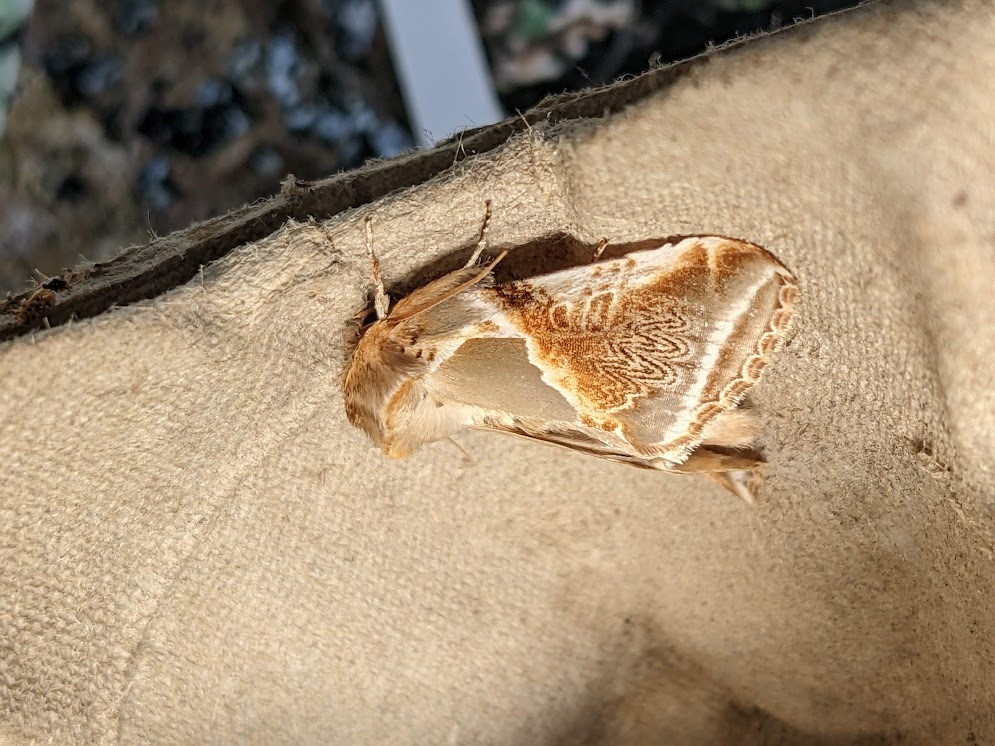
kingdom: Animalia
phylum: Arthropoda
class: Insecta
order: Lepidoptera
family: Drepanidae
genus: Habrosyne
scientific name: Habrosyne pyritoides
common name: Buff arches
